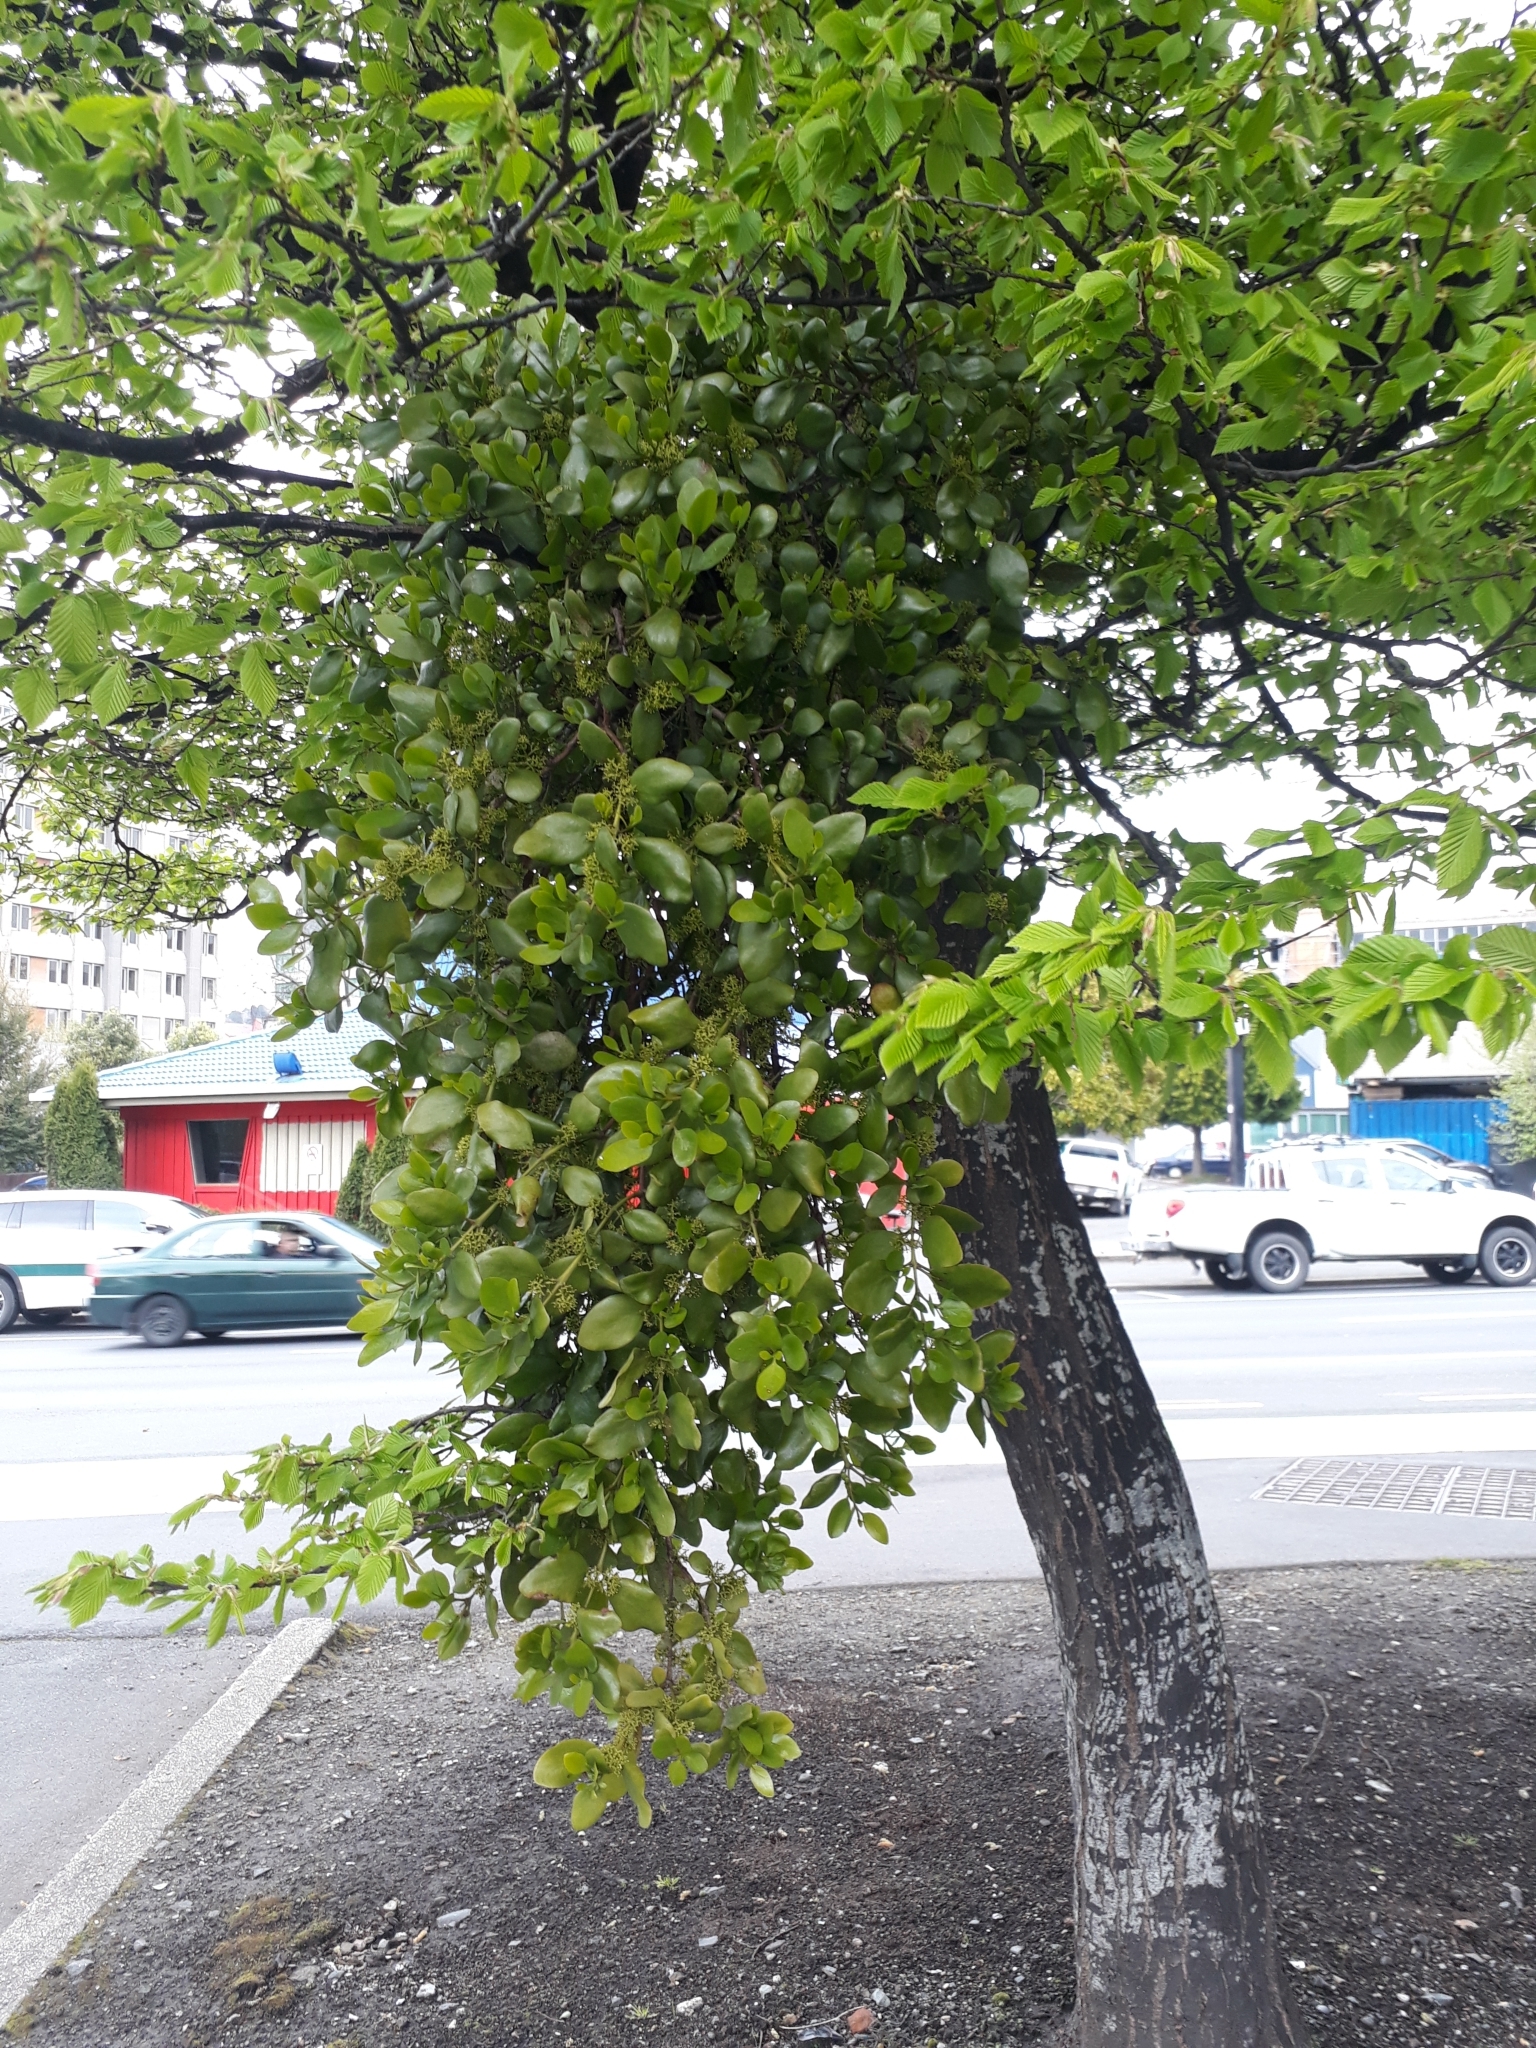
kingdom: Plantae
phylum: Tracheophyta
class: Magnoliopsida
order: Santalales
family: Loranthaceae
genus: Ileostylus
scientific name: Ileostylus micranthus
